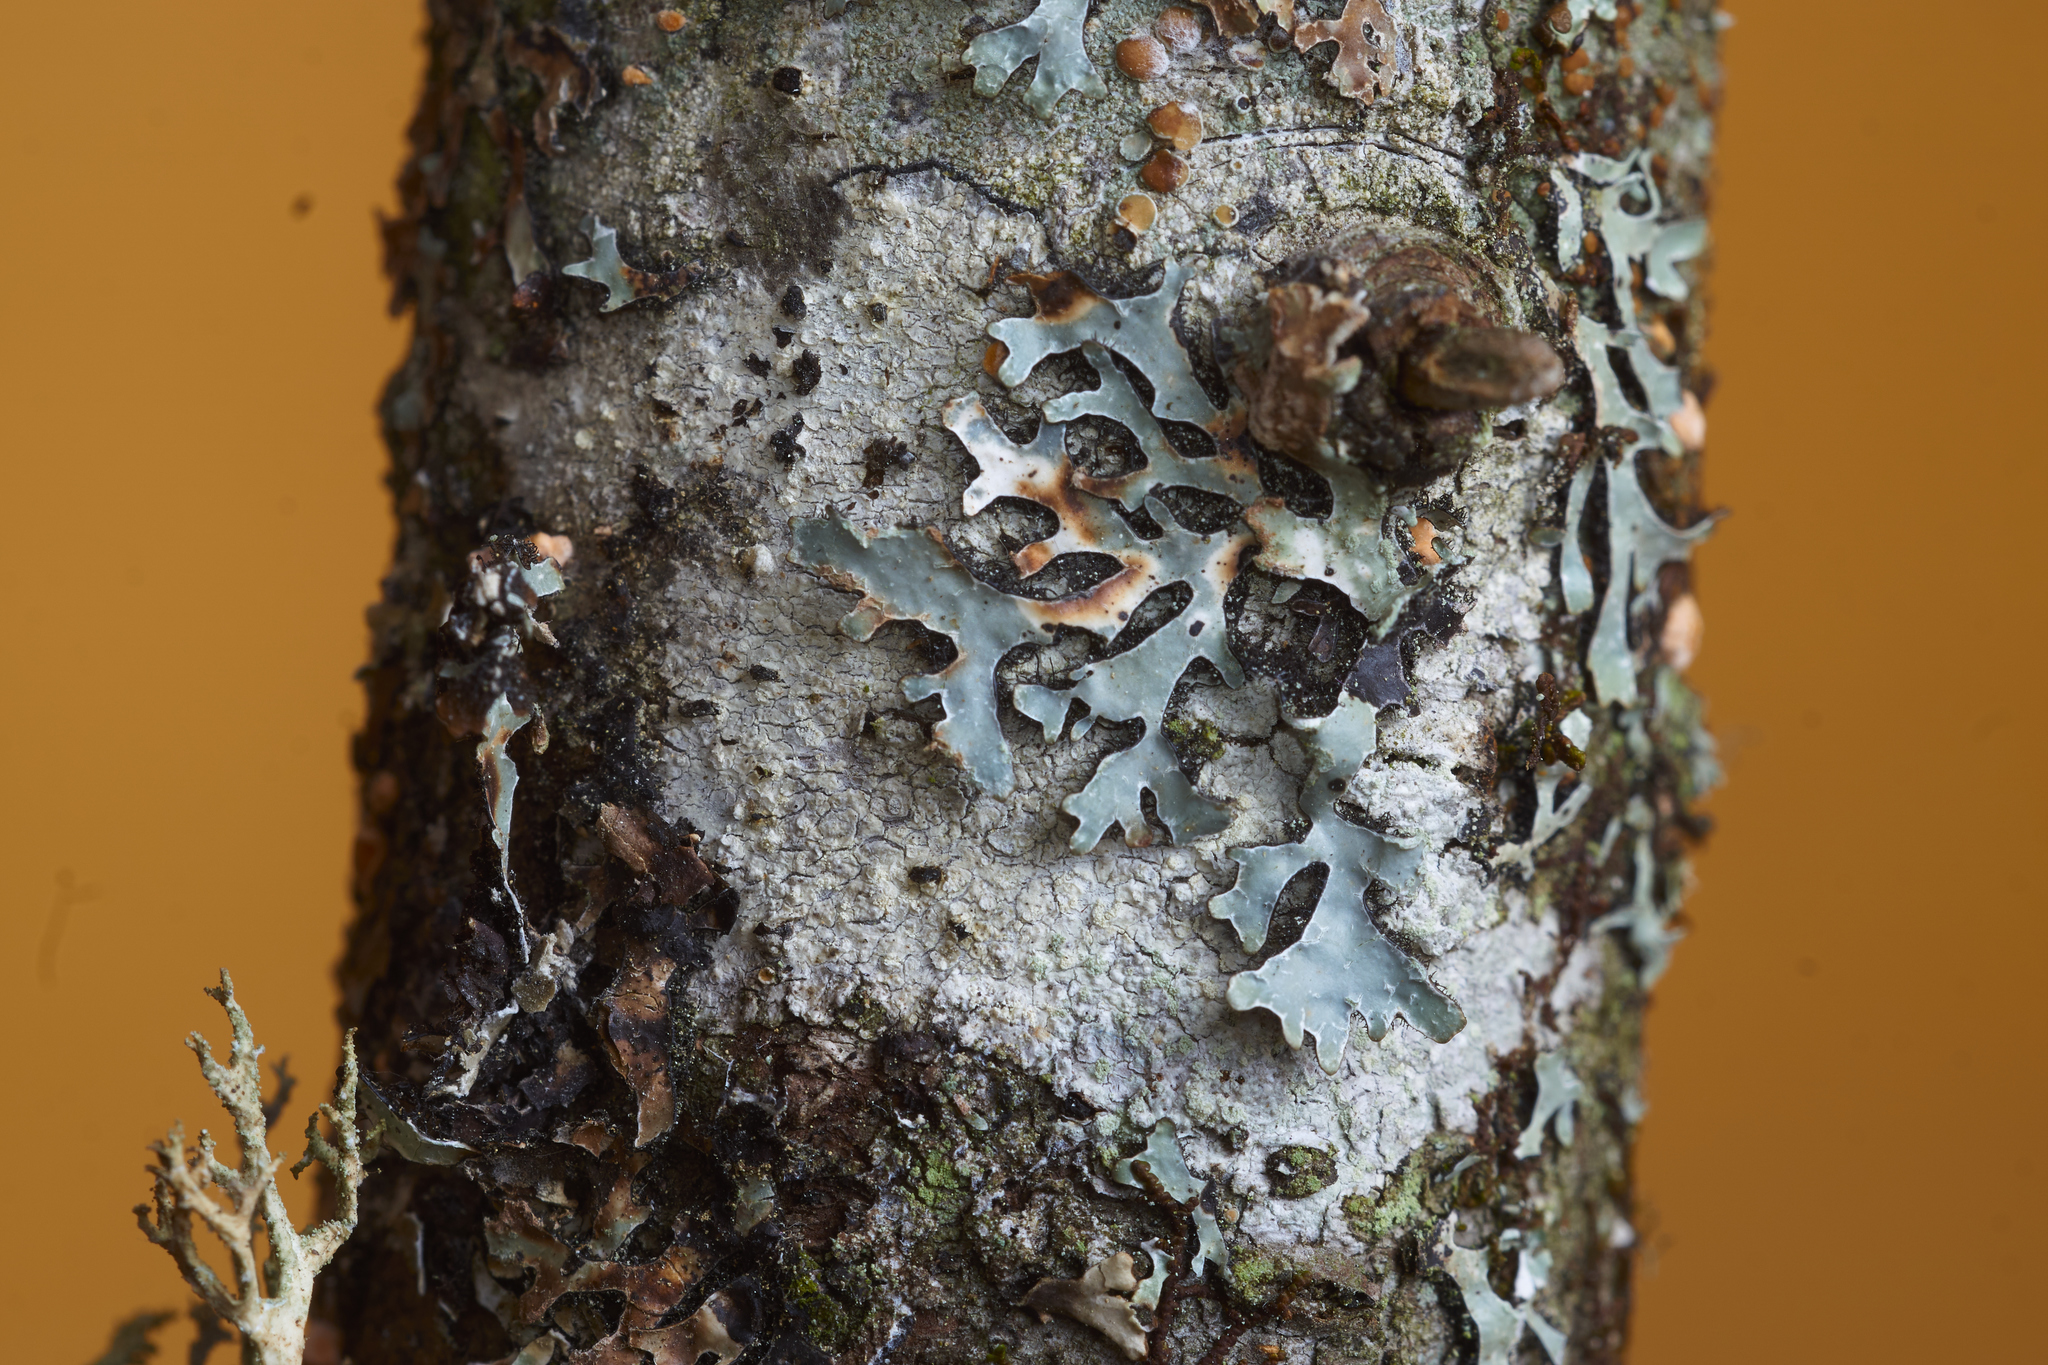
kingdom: Fungi
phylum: Ascomycota
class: Lecanoromycetes
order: Pertusariales
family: Ochrolechiaceae
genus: Ochrolechia
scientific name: Ochrolechia arborea
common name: Tree saucer lichen
